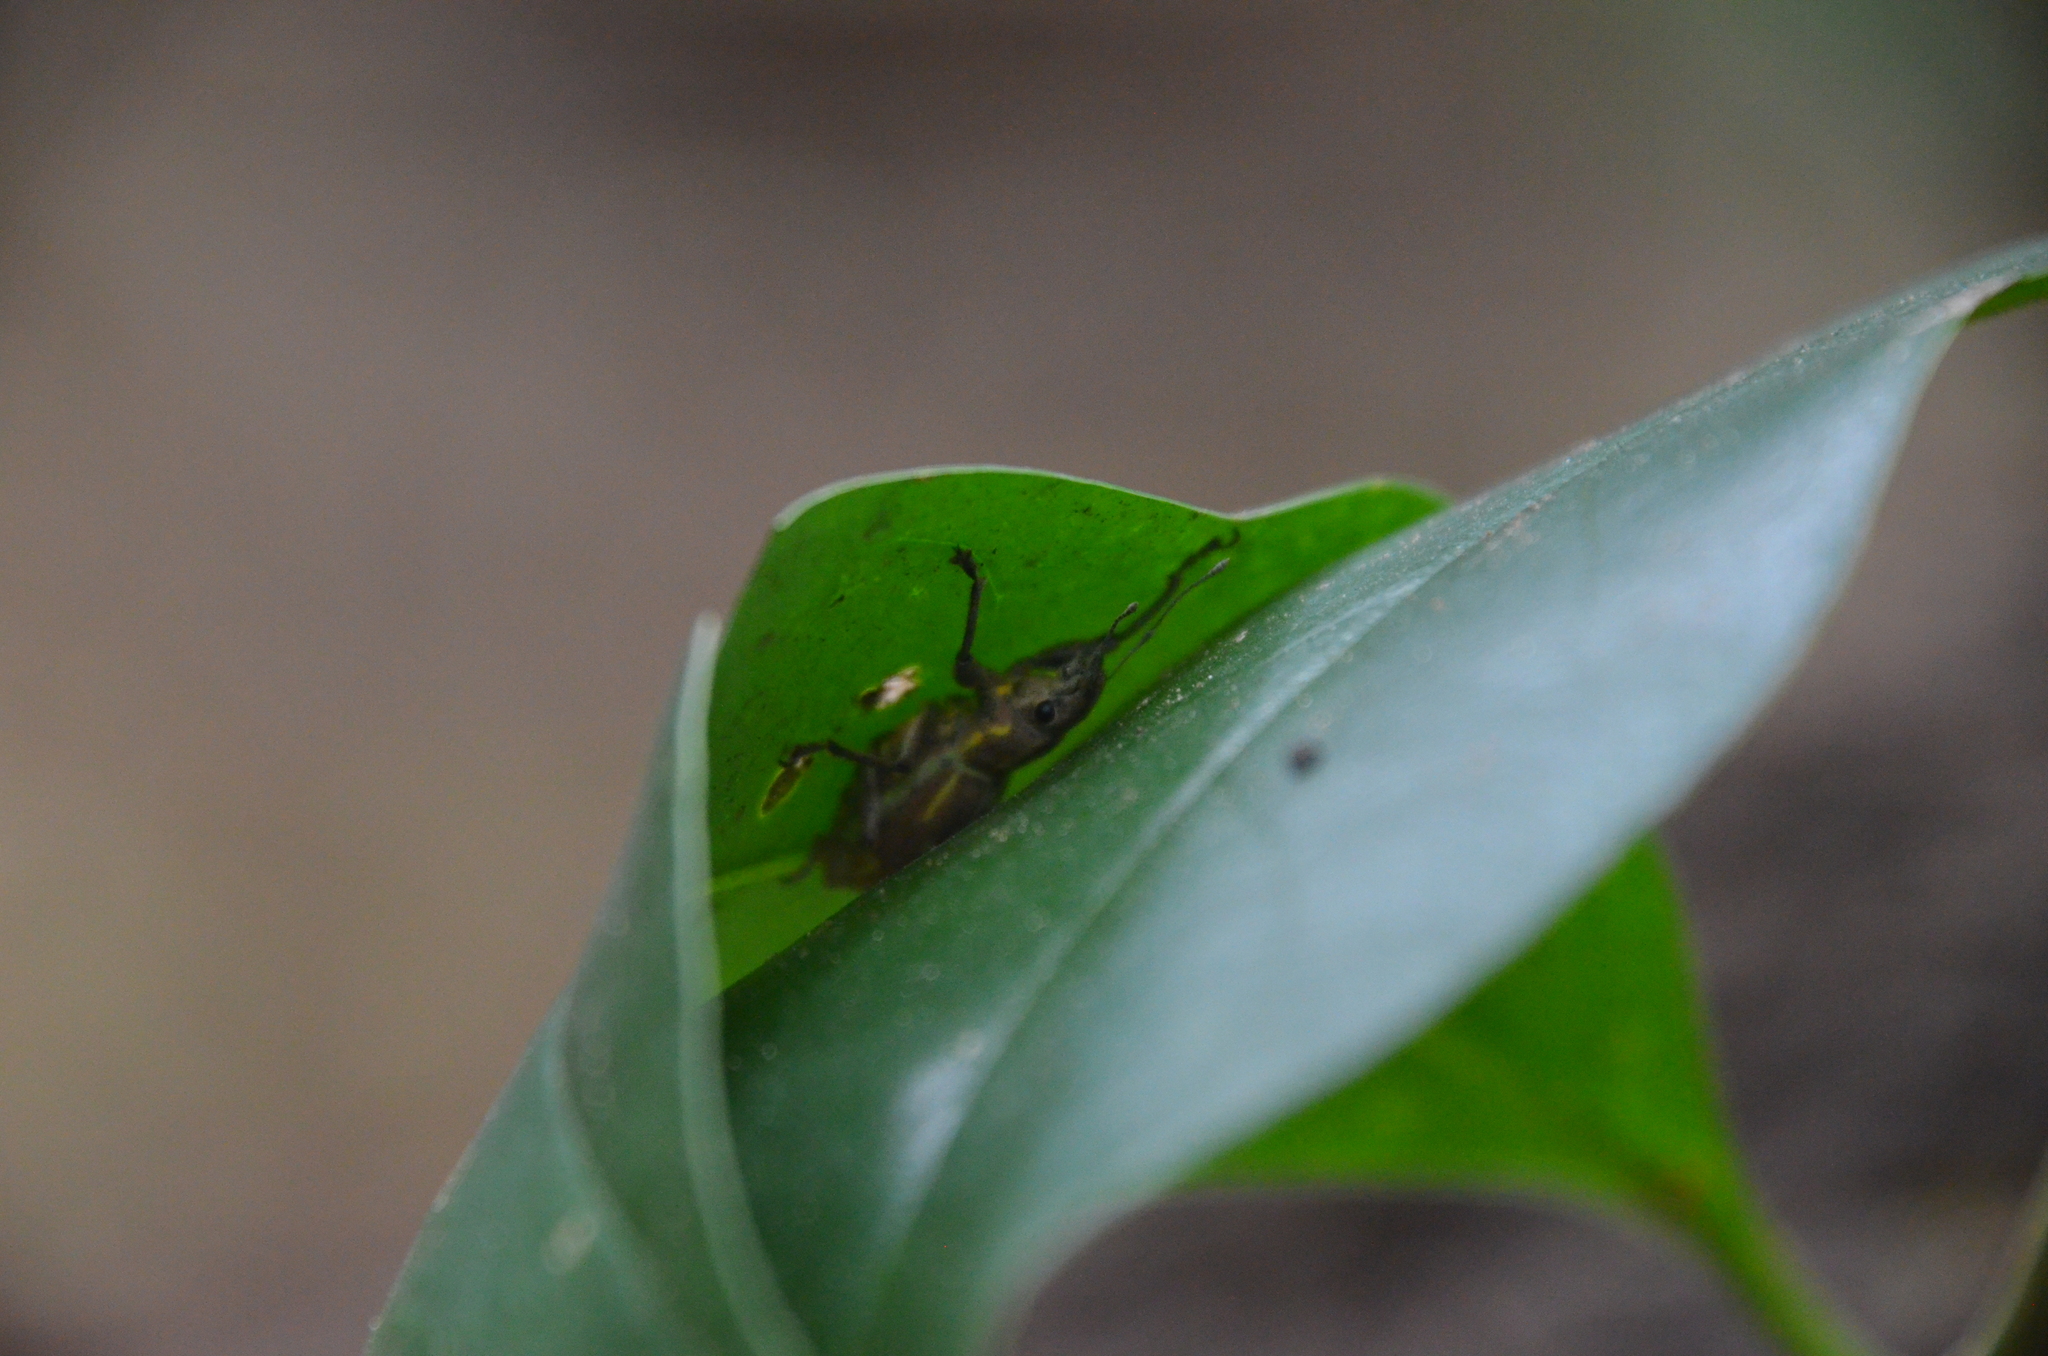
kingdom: Animalia
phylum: Arthropoda
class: Insecta
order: Coleoptera
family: Curculionidae
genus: Naupactus
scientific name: Naupactus xanthographus
